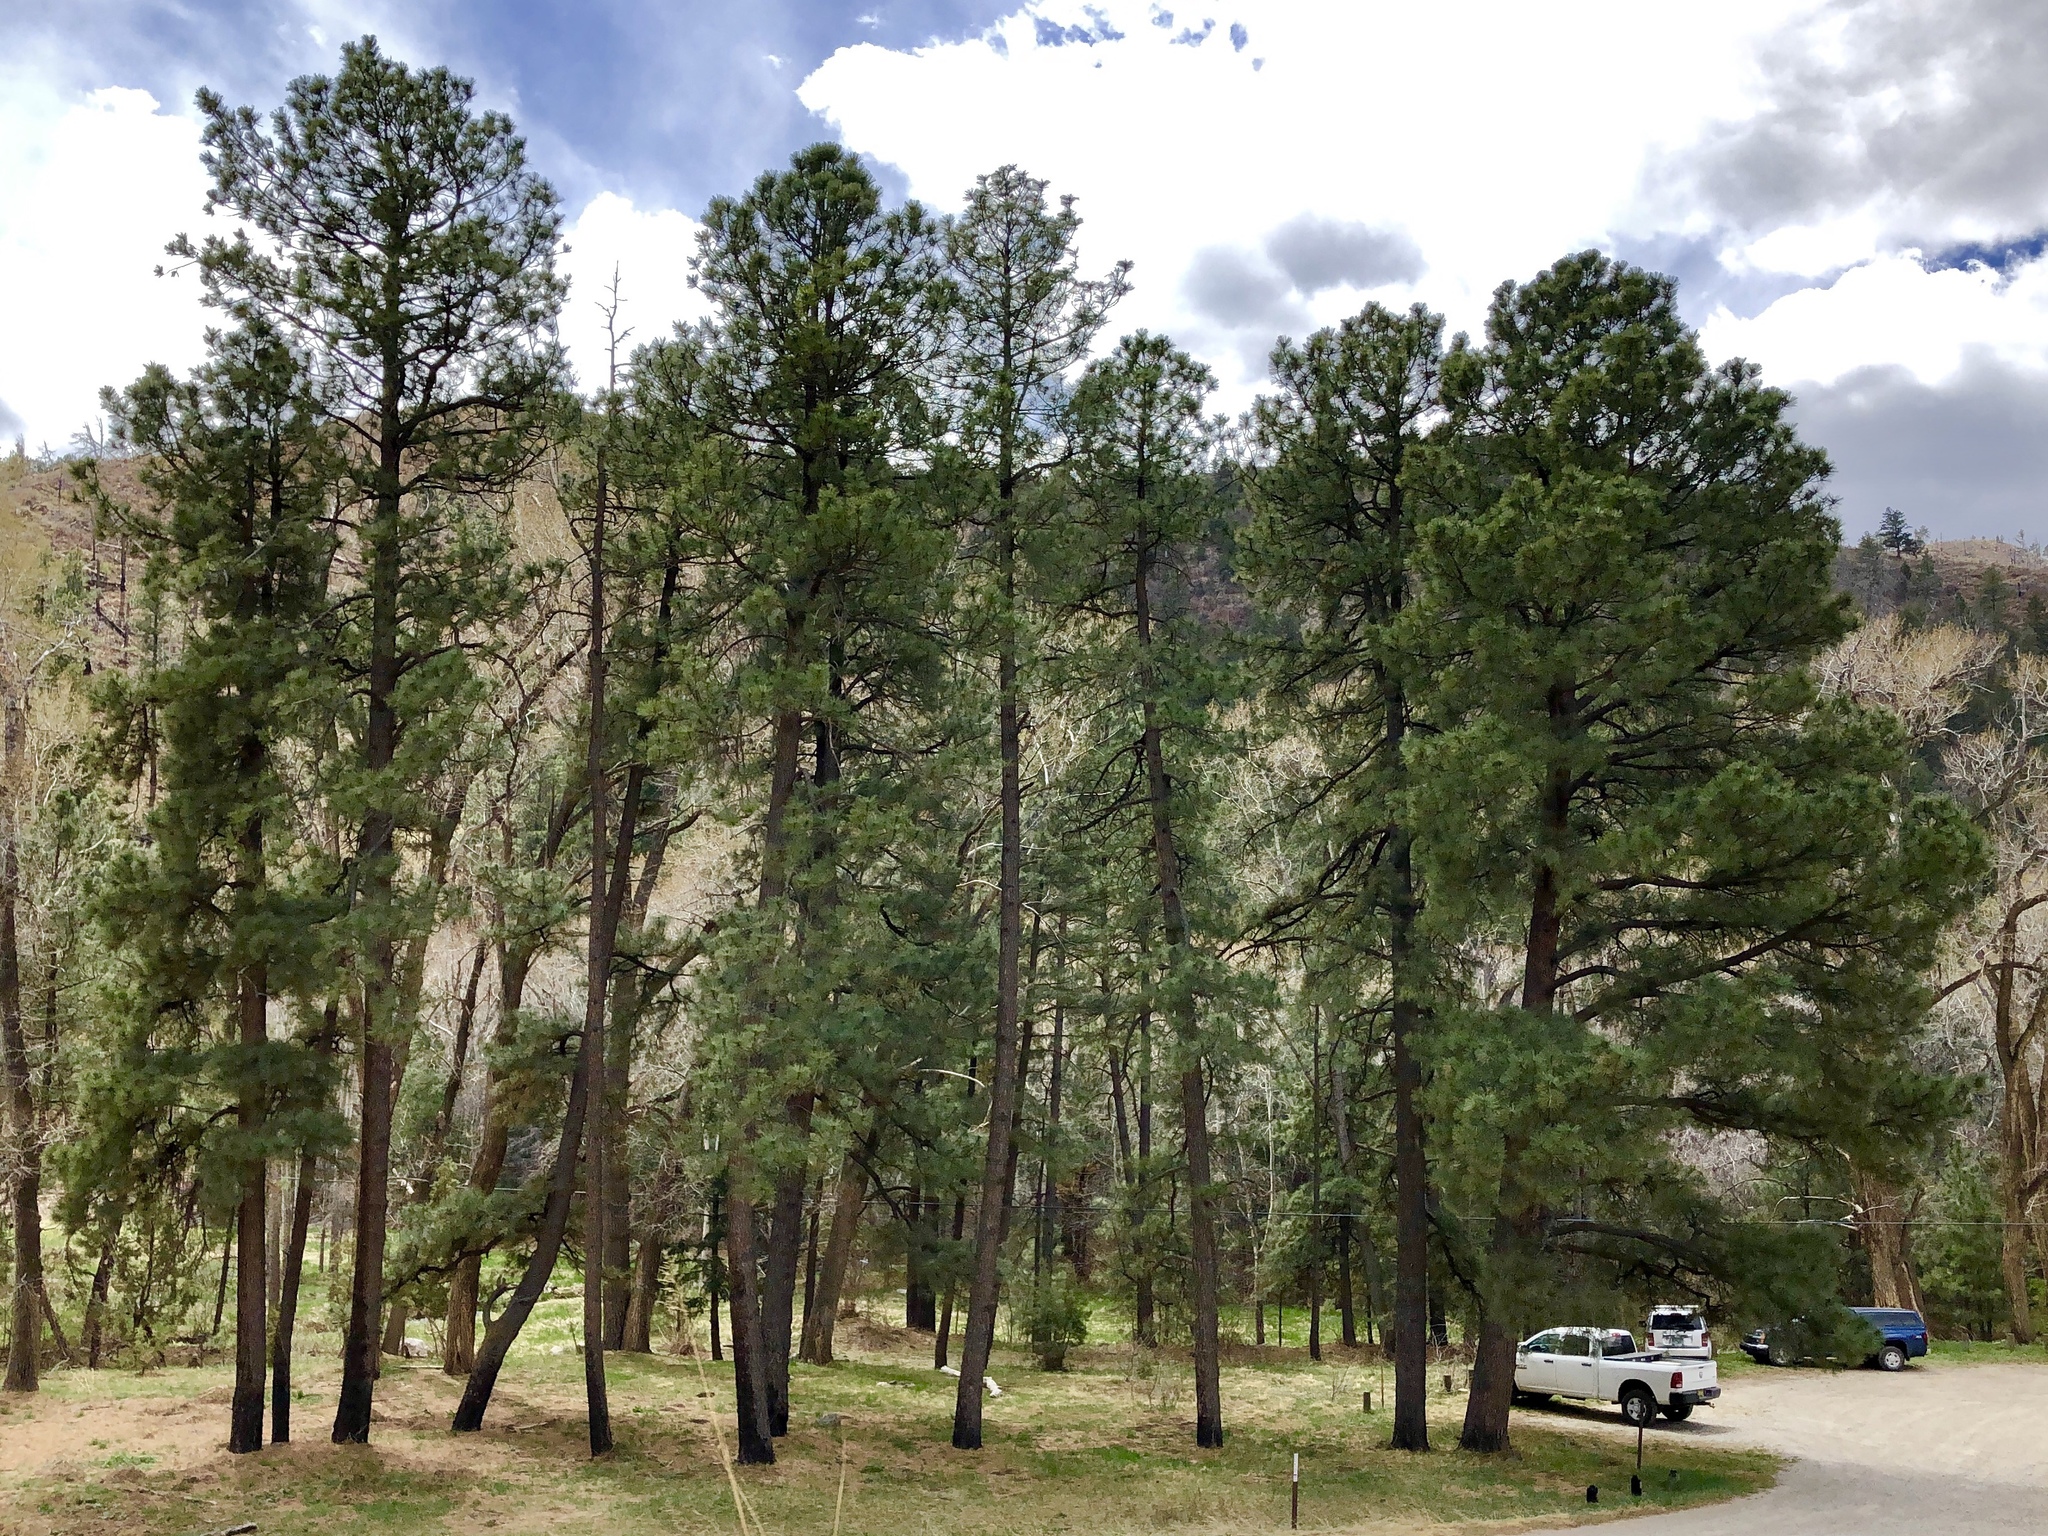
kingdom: Plantae
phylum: Tracheophyta
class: Pinopsida
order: Pinales
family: Pinaceae
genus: Pinus
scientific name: Pinus ponderosa
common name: Western yellow-pine
